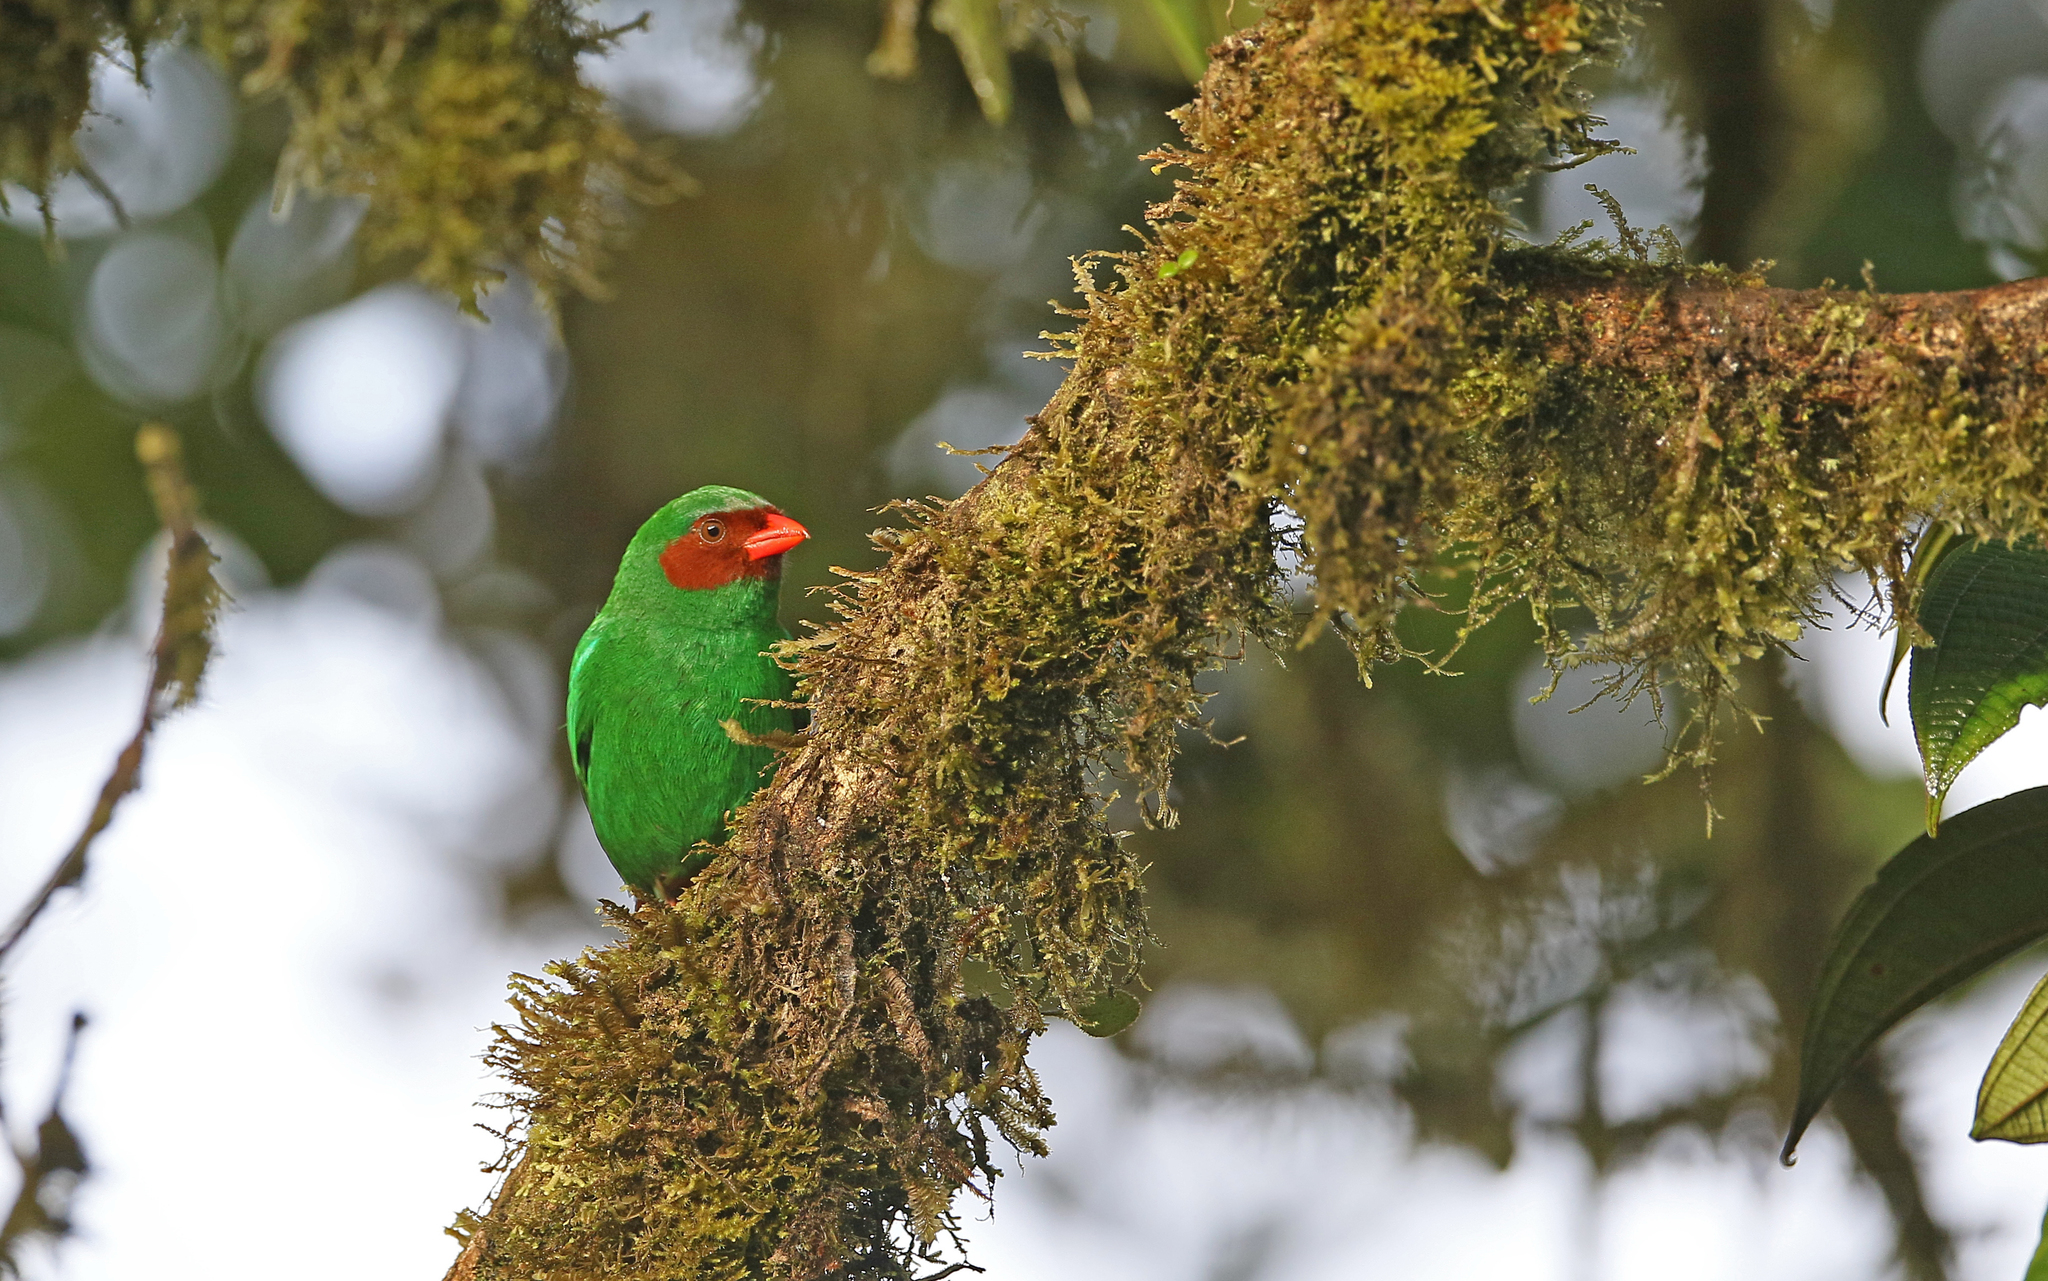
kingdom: Animalia
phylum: Chordata
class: Aves
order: Passeriformes
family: Thraupidae
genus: Chlorornis
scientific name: Chlorornis riefferii
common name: Grass-green tanager
